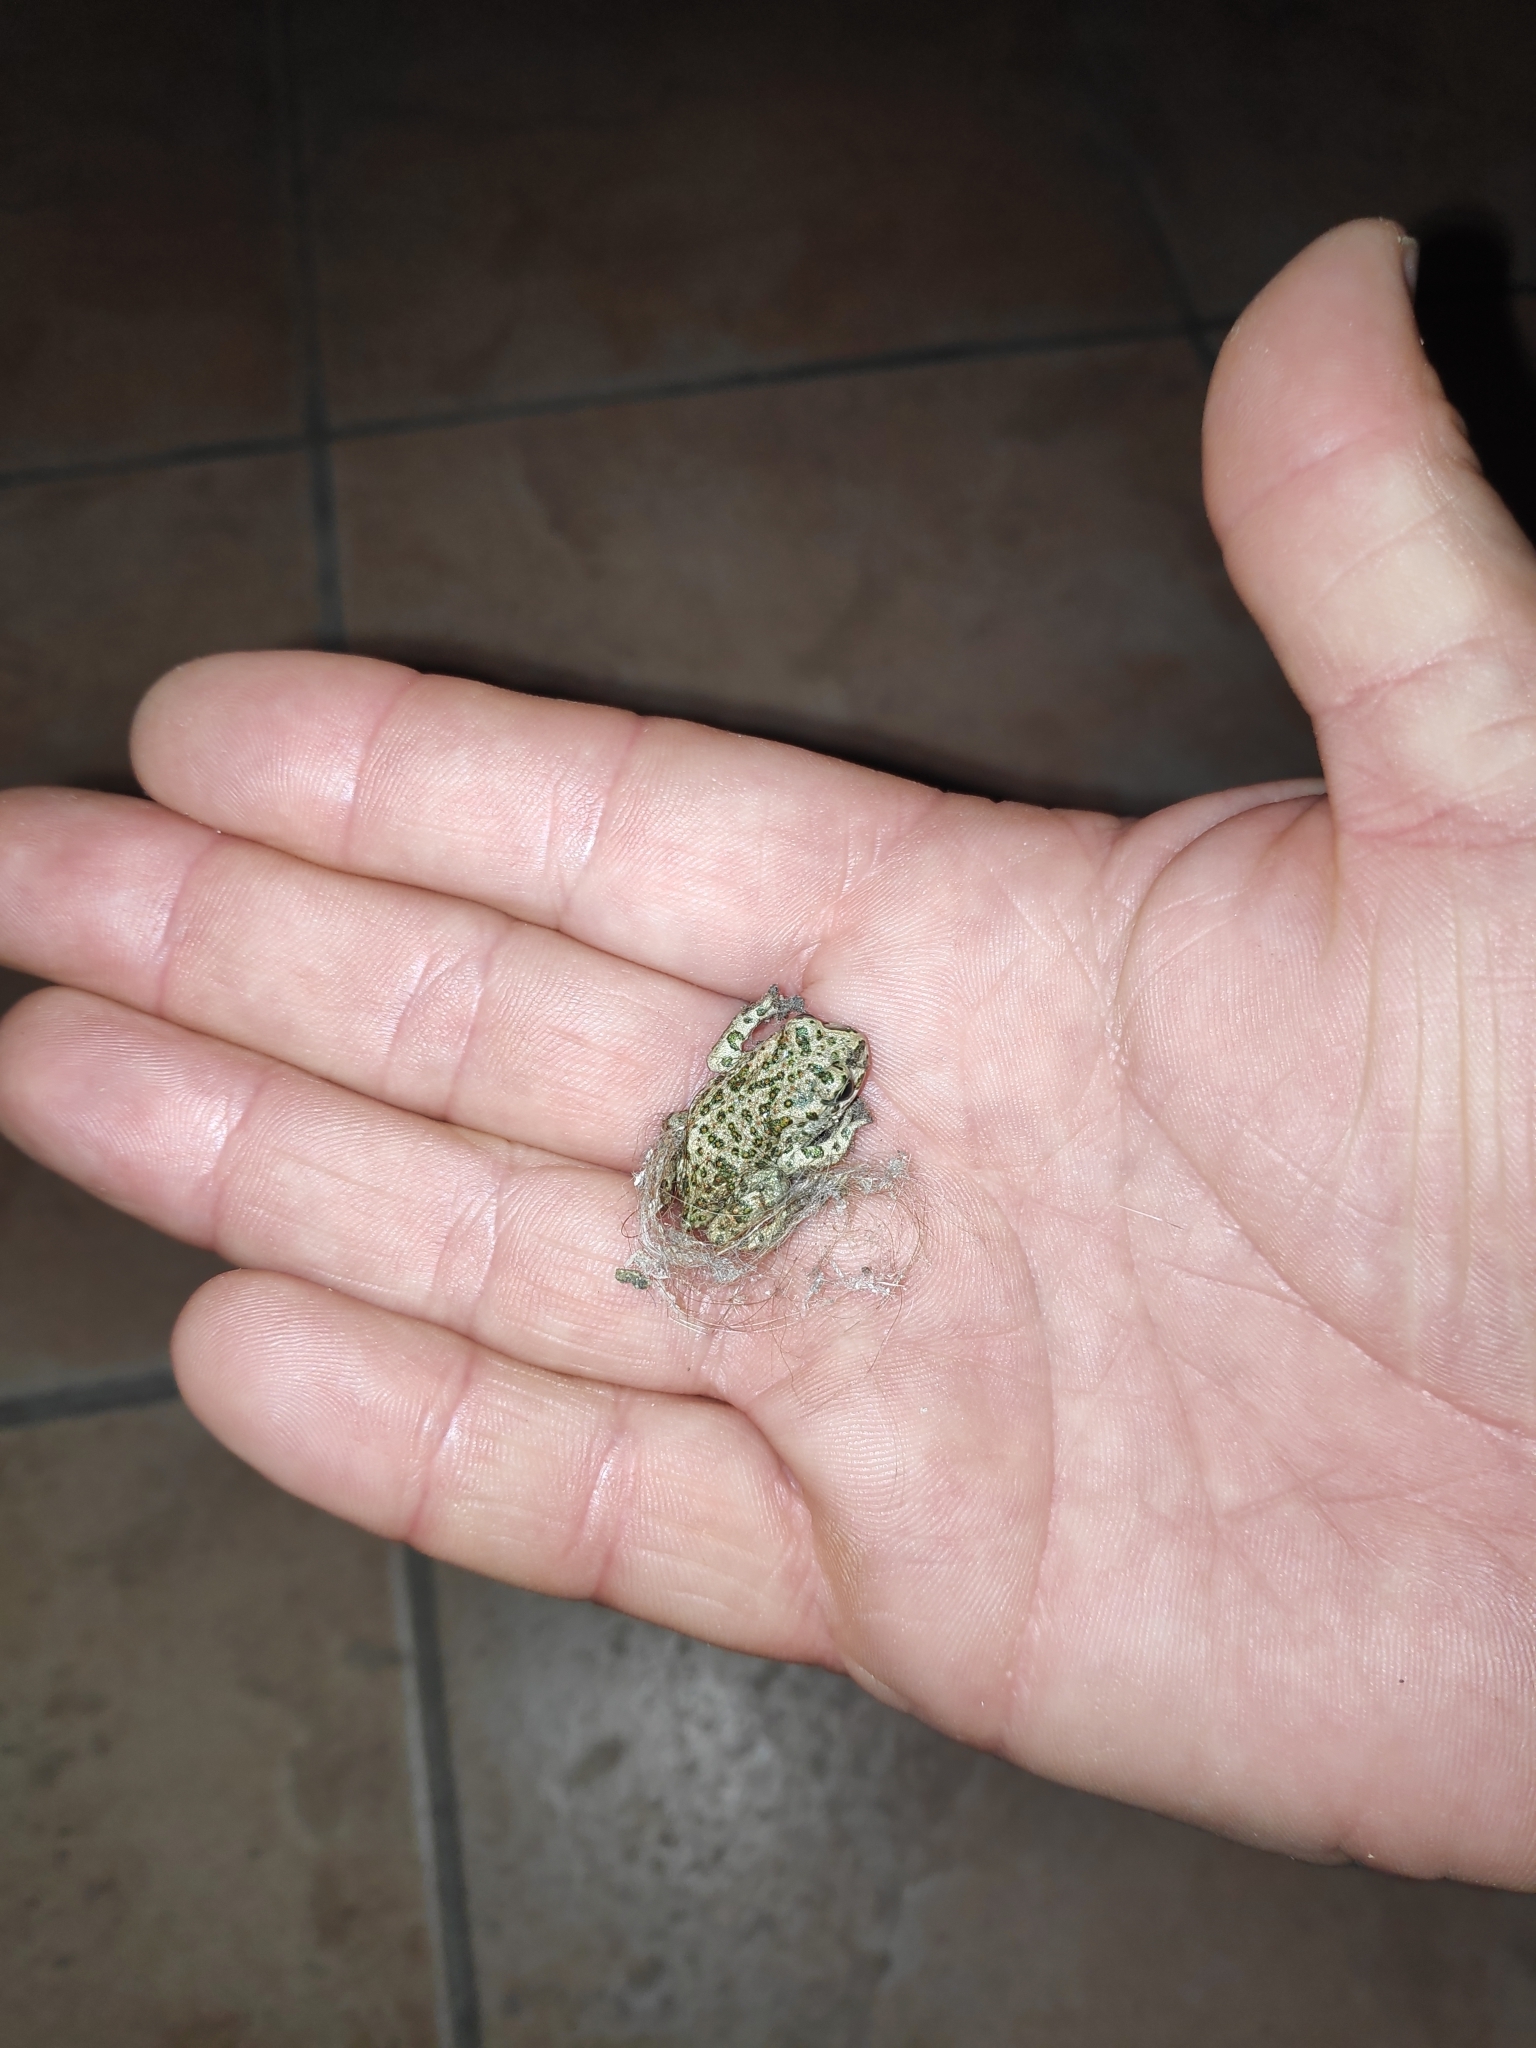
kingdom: Animalia
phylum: Chordata
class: Amphibia
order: Anura
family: Bufonidae
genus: Bufotes
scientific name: Bufotes viridis
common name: European green toad
